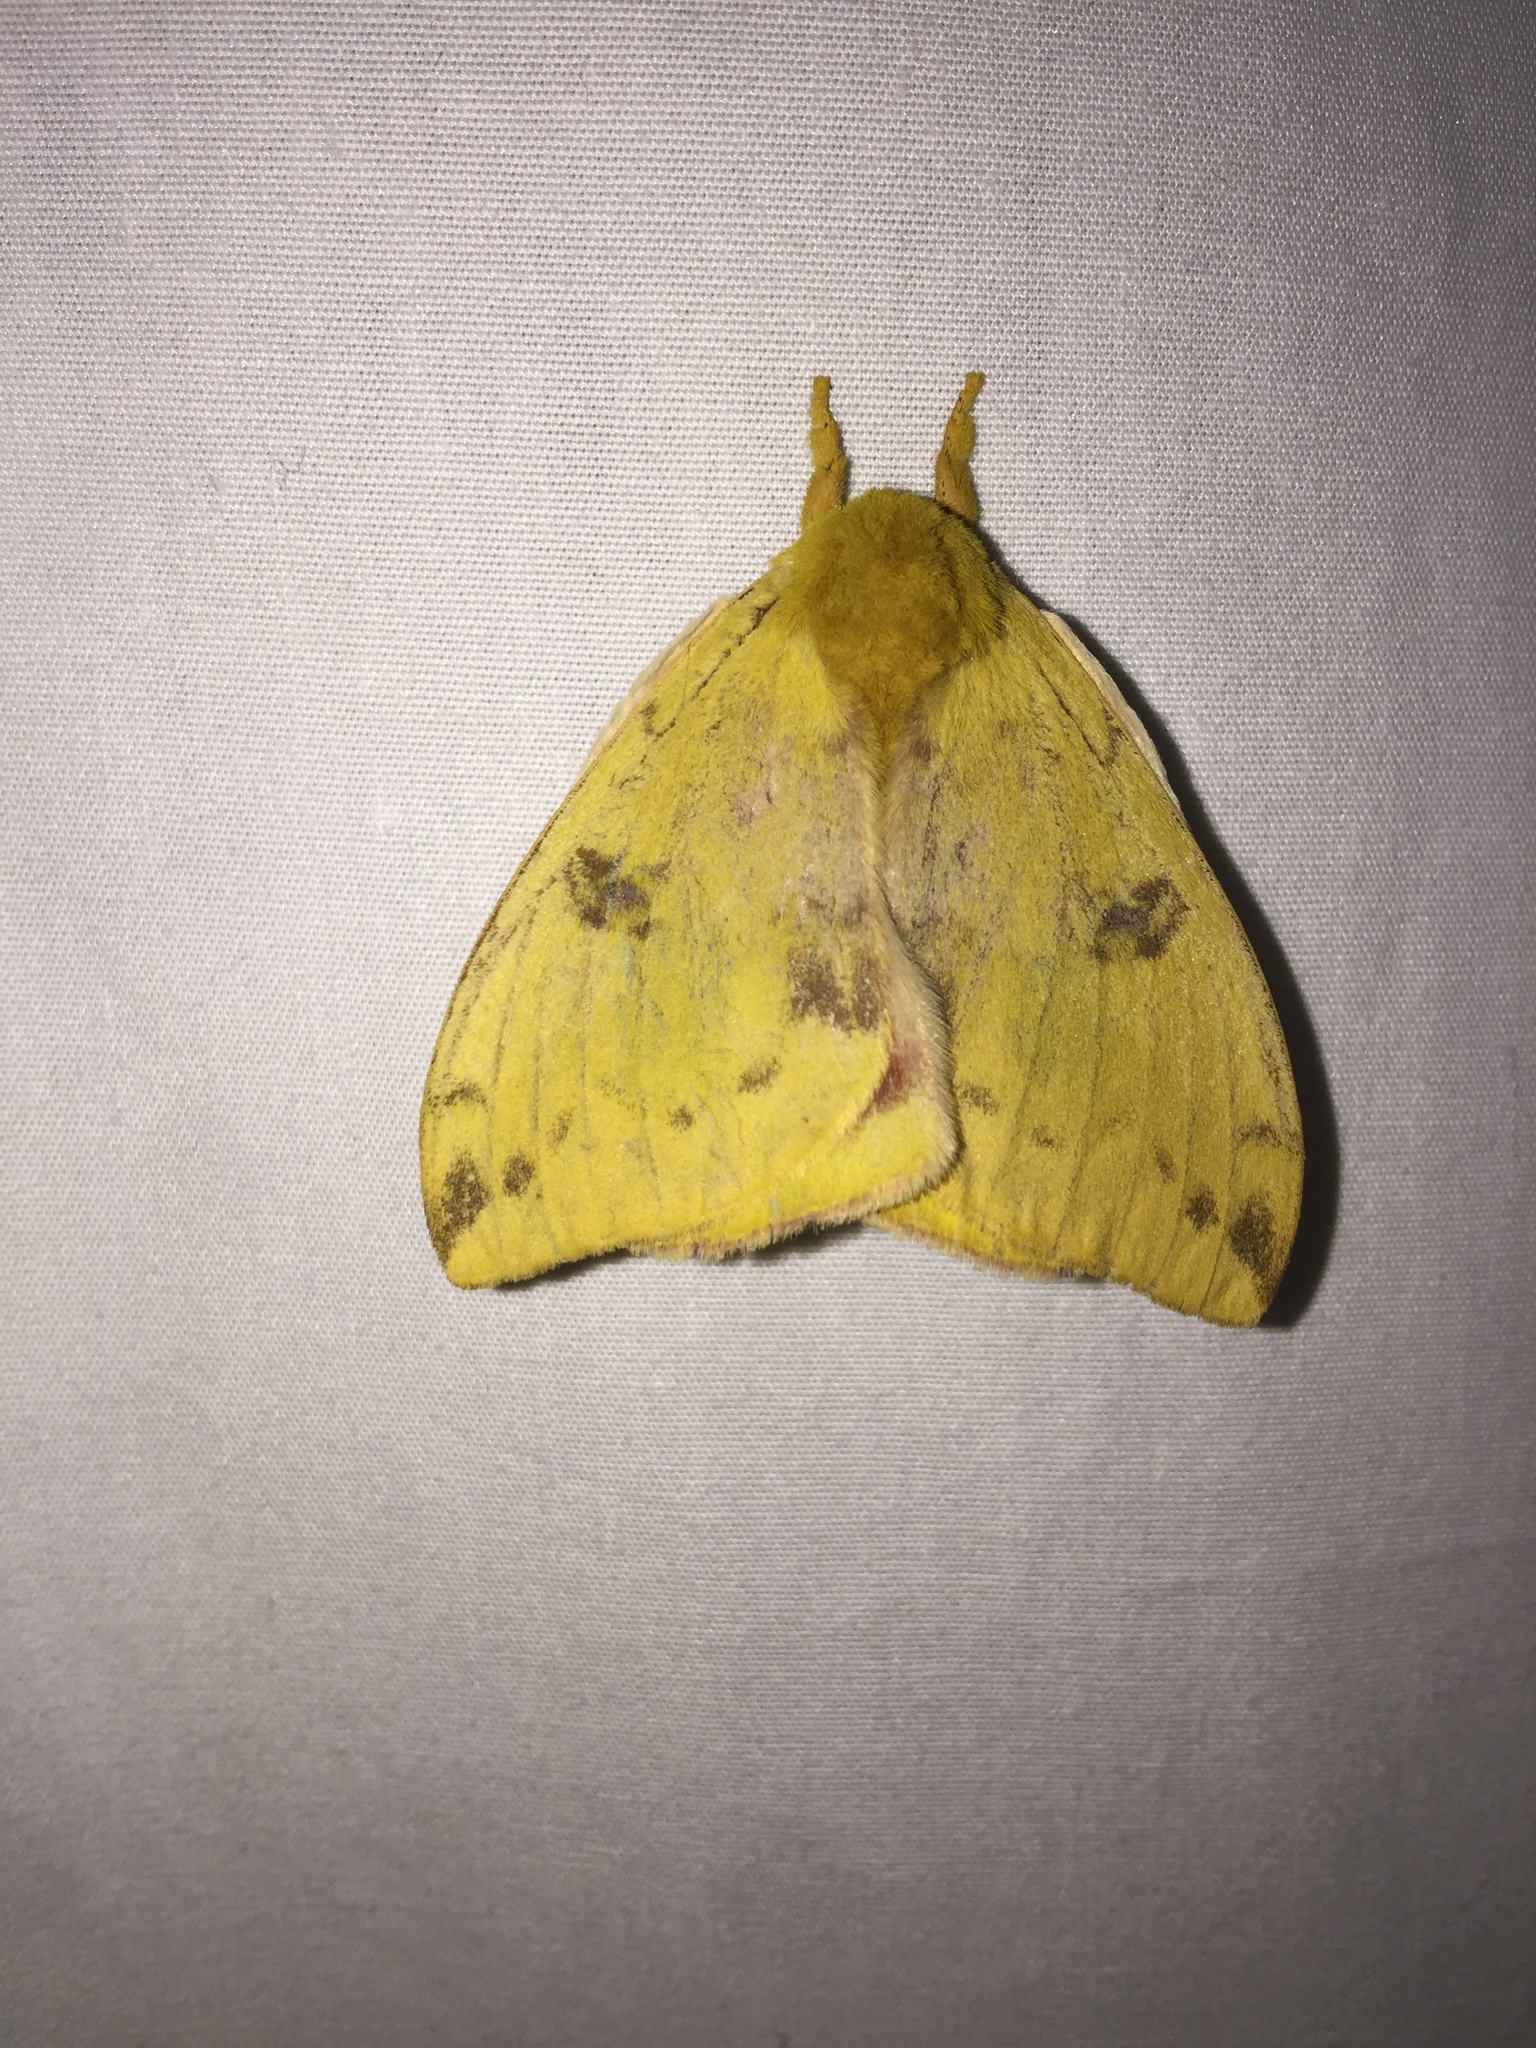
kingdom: Animalia
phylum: Arthropoda
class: Insecta
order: Lepidoptera
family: Saturniidae
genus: Automeris
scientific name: Automeris io
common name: Io moth
